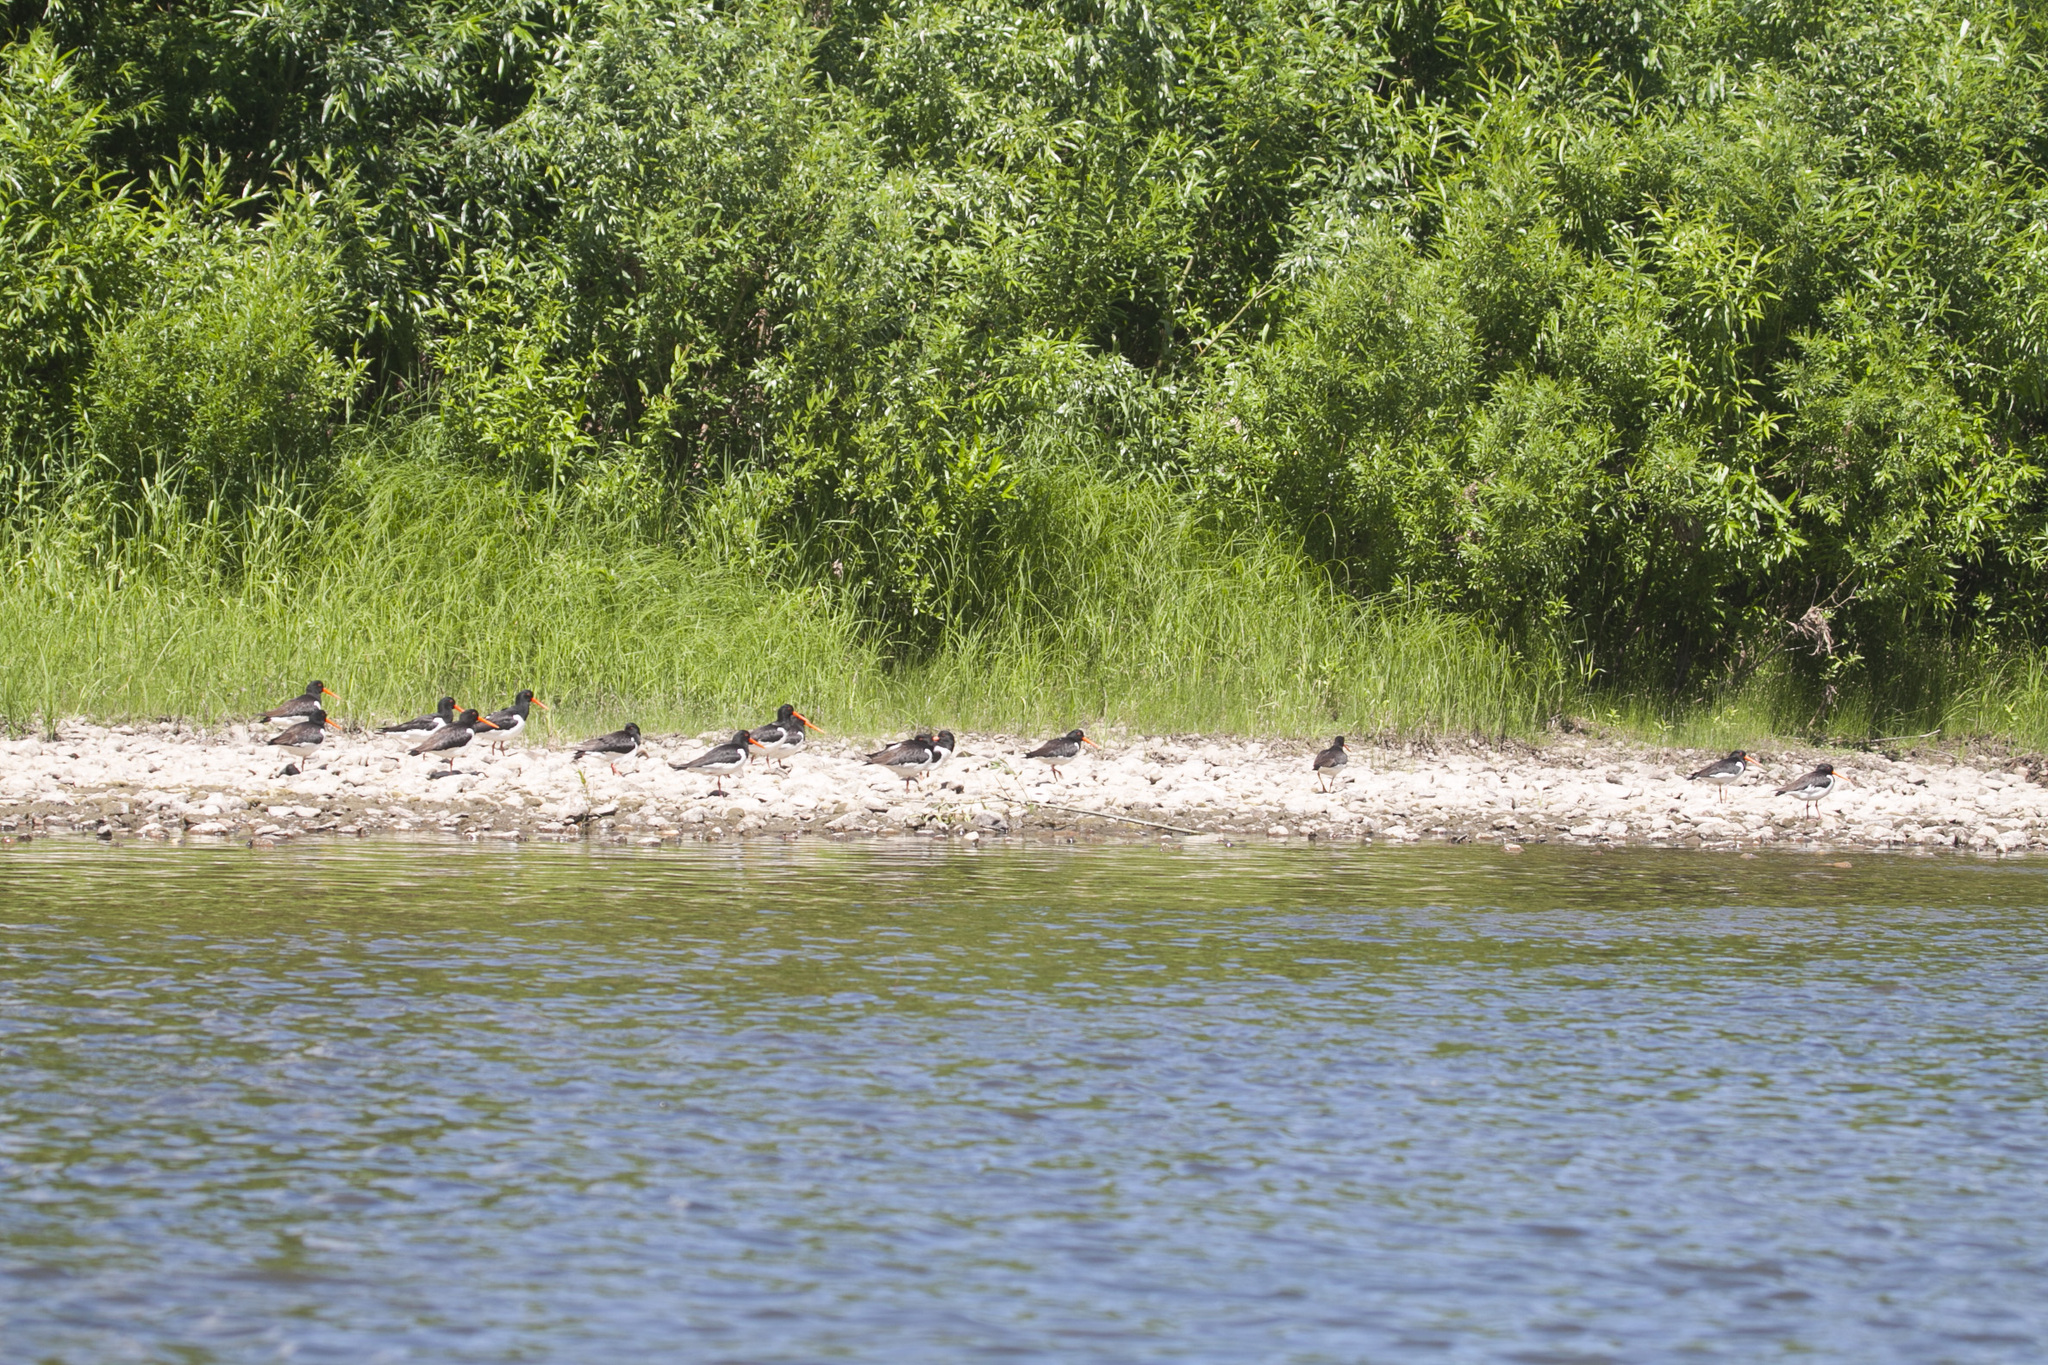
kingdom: Animalia
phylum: Chordata
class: Aves
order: Charadriiformes
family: Haematopodidae
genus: Haematopus
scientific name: Haematopus ostralegus
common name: Eurasian oystercatcher
